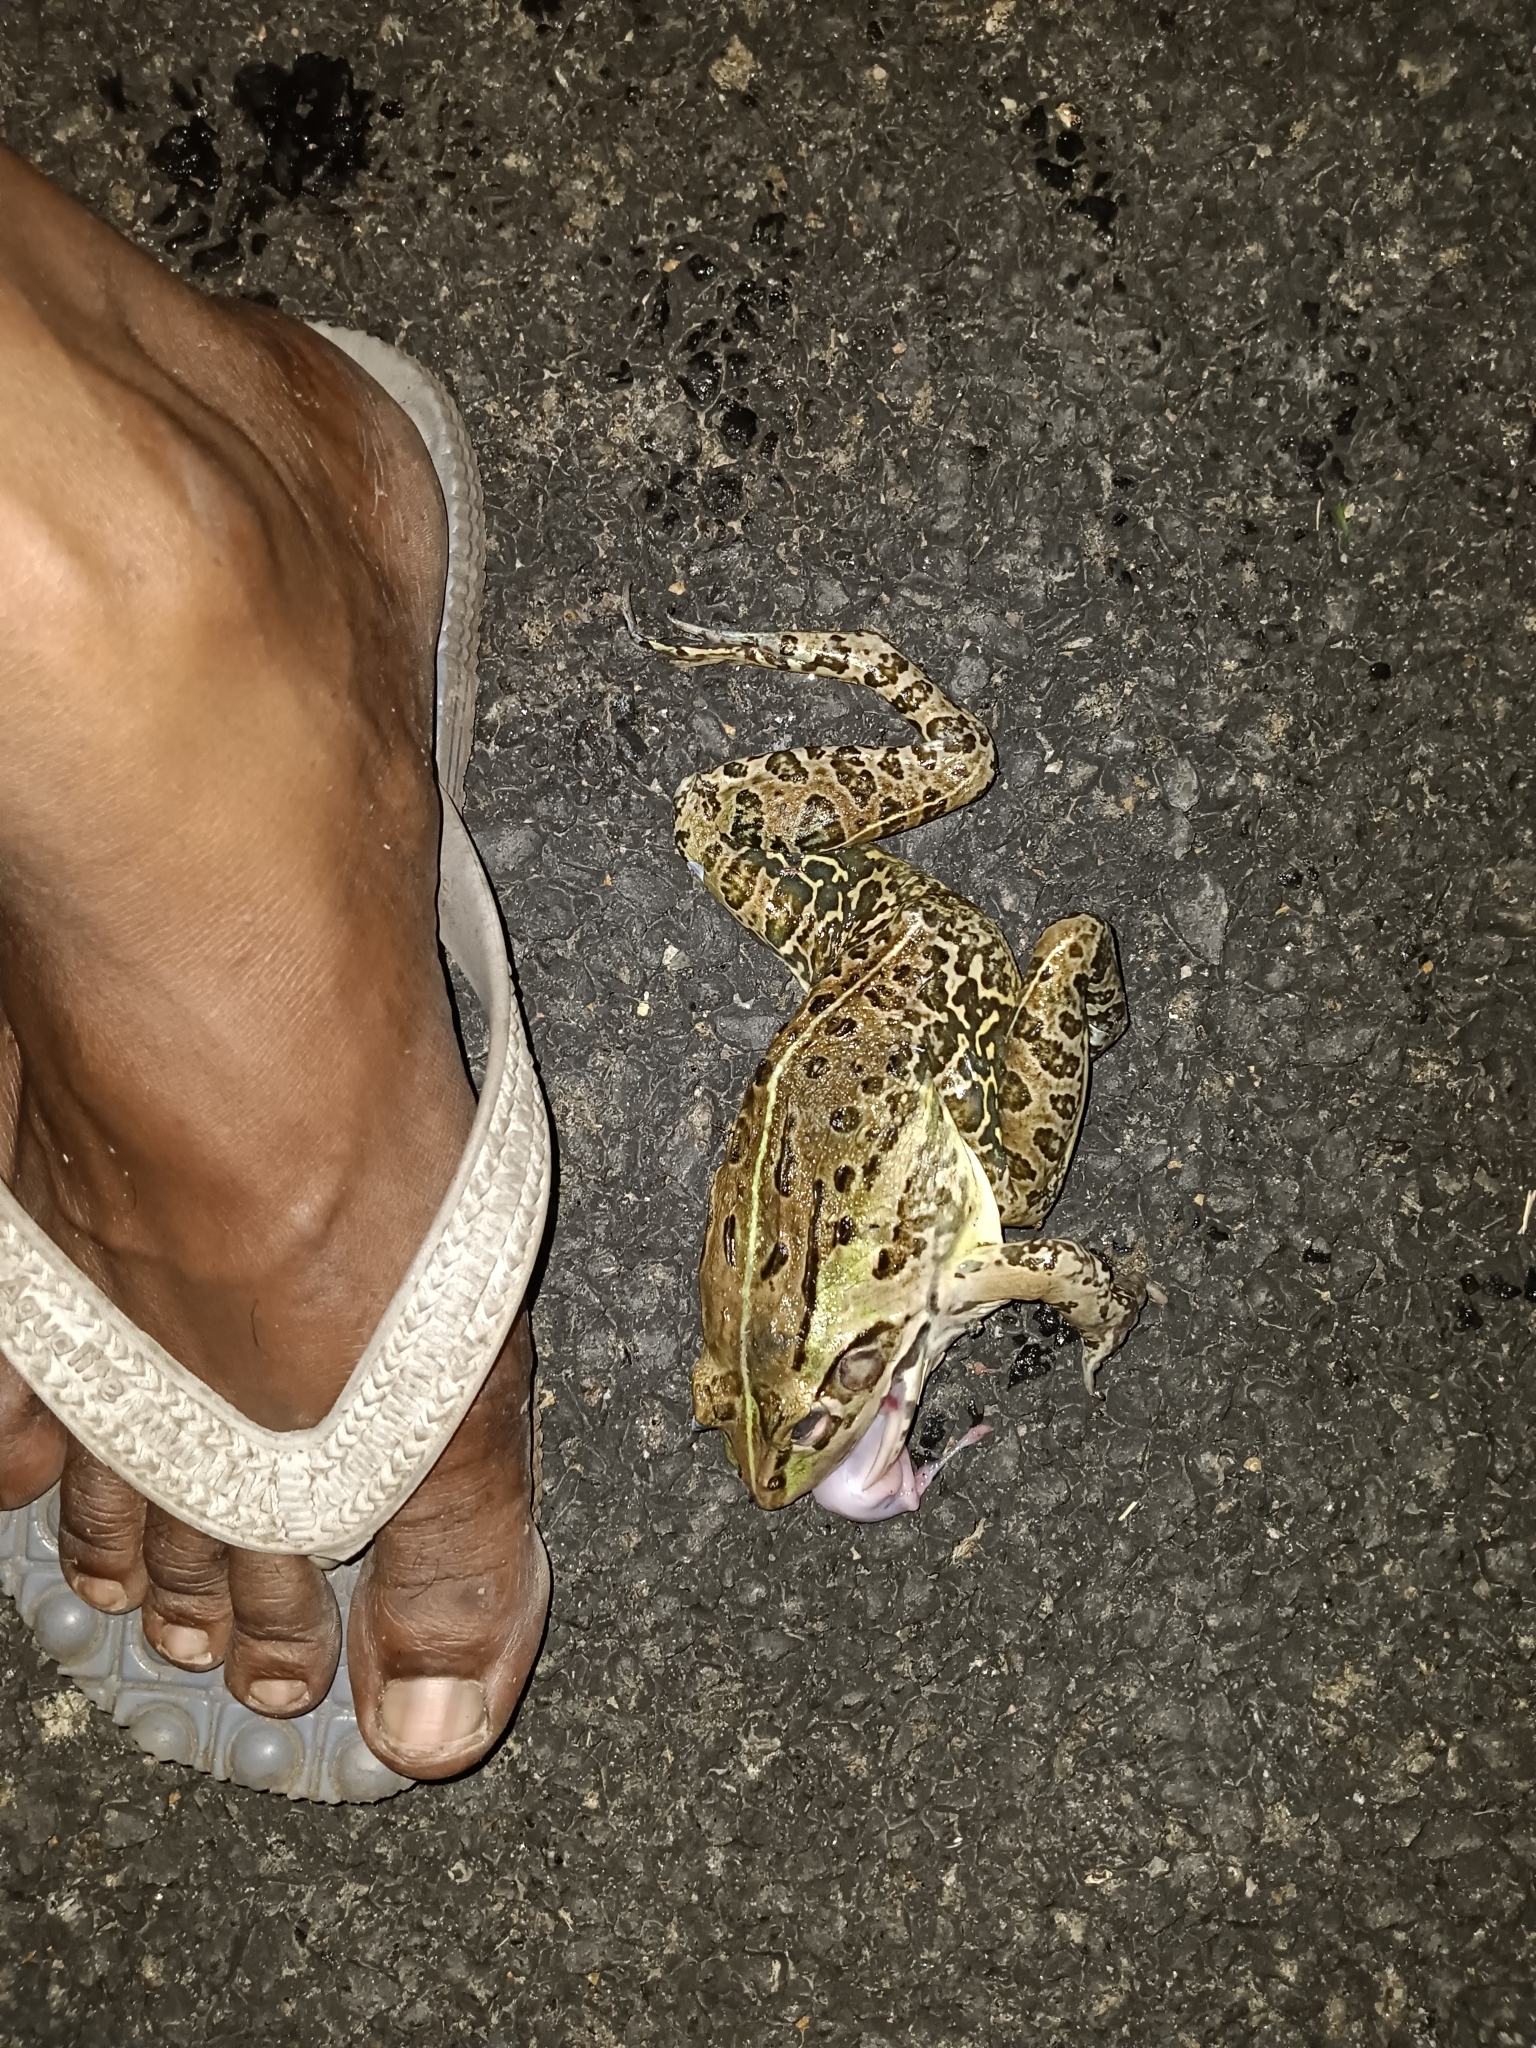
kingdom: Animalia
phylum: Chordata
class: Amphibia
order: Anura
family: Dicroglossidae
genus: Hoplobatrachus
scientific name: Hoplobatrachus tigerinus
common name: Indian bullfrog
